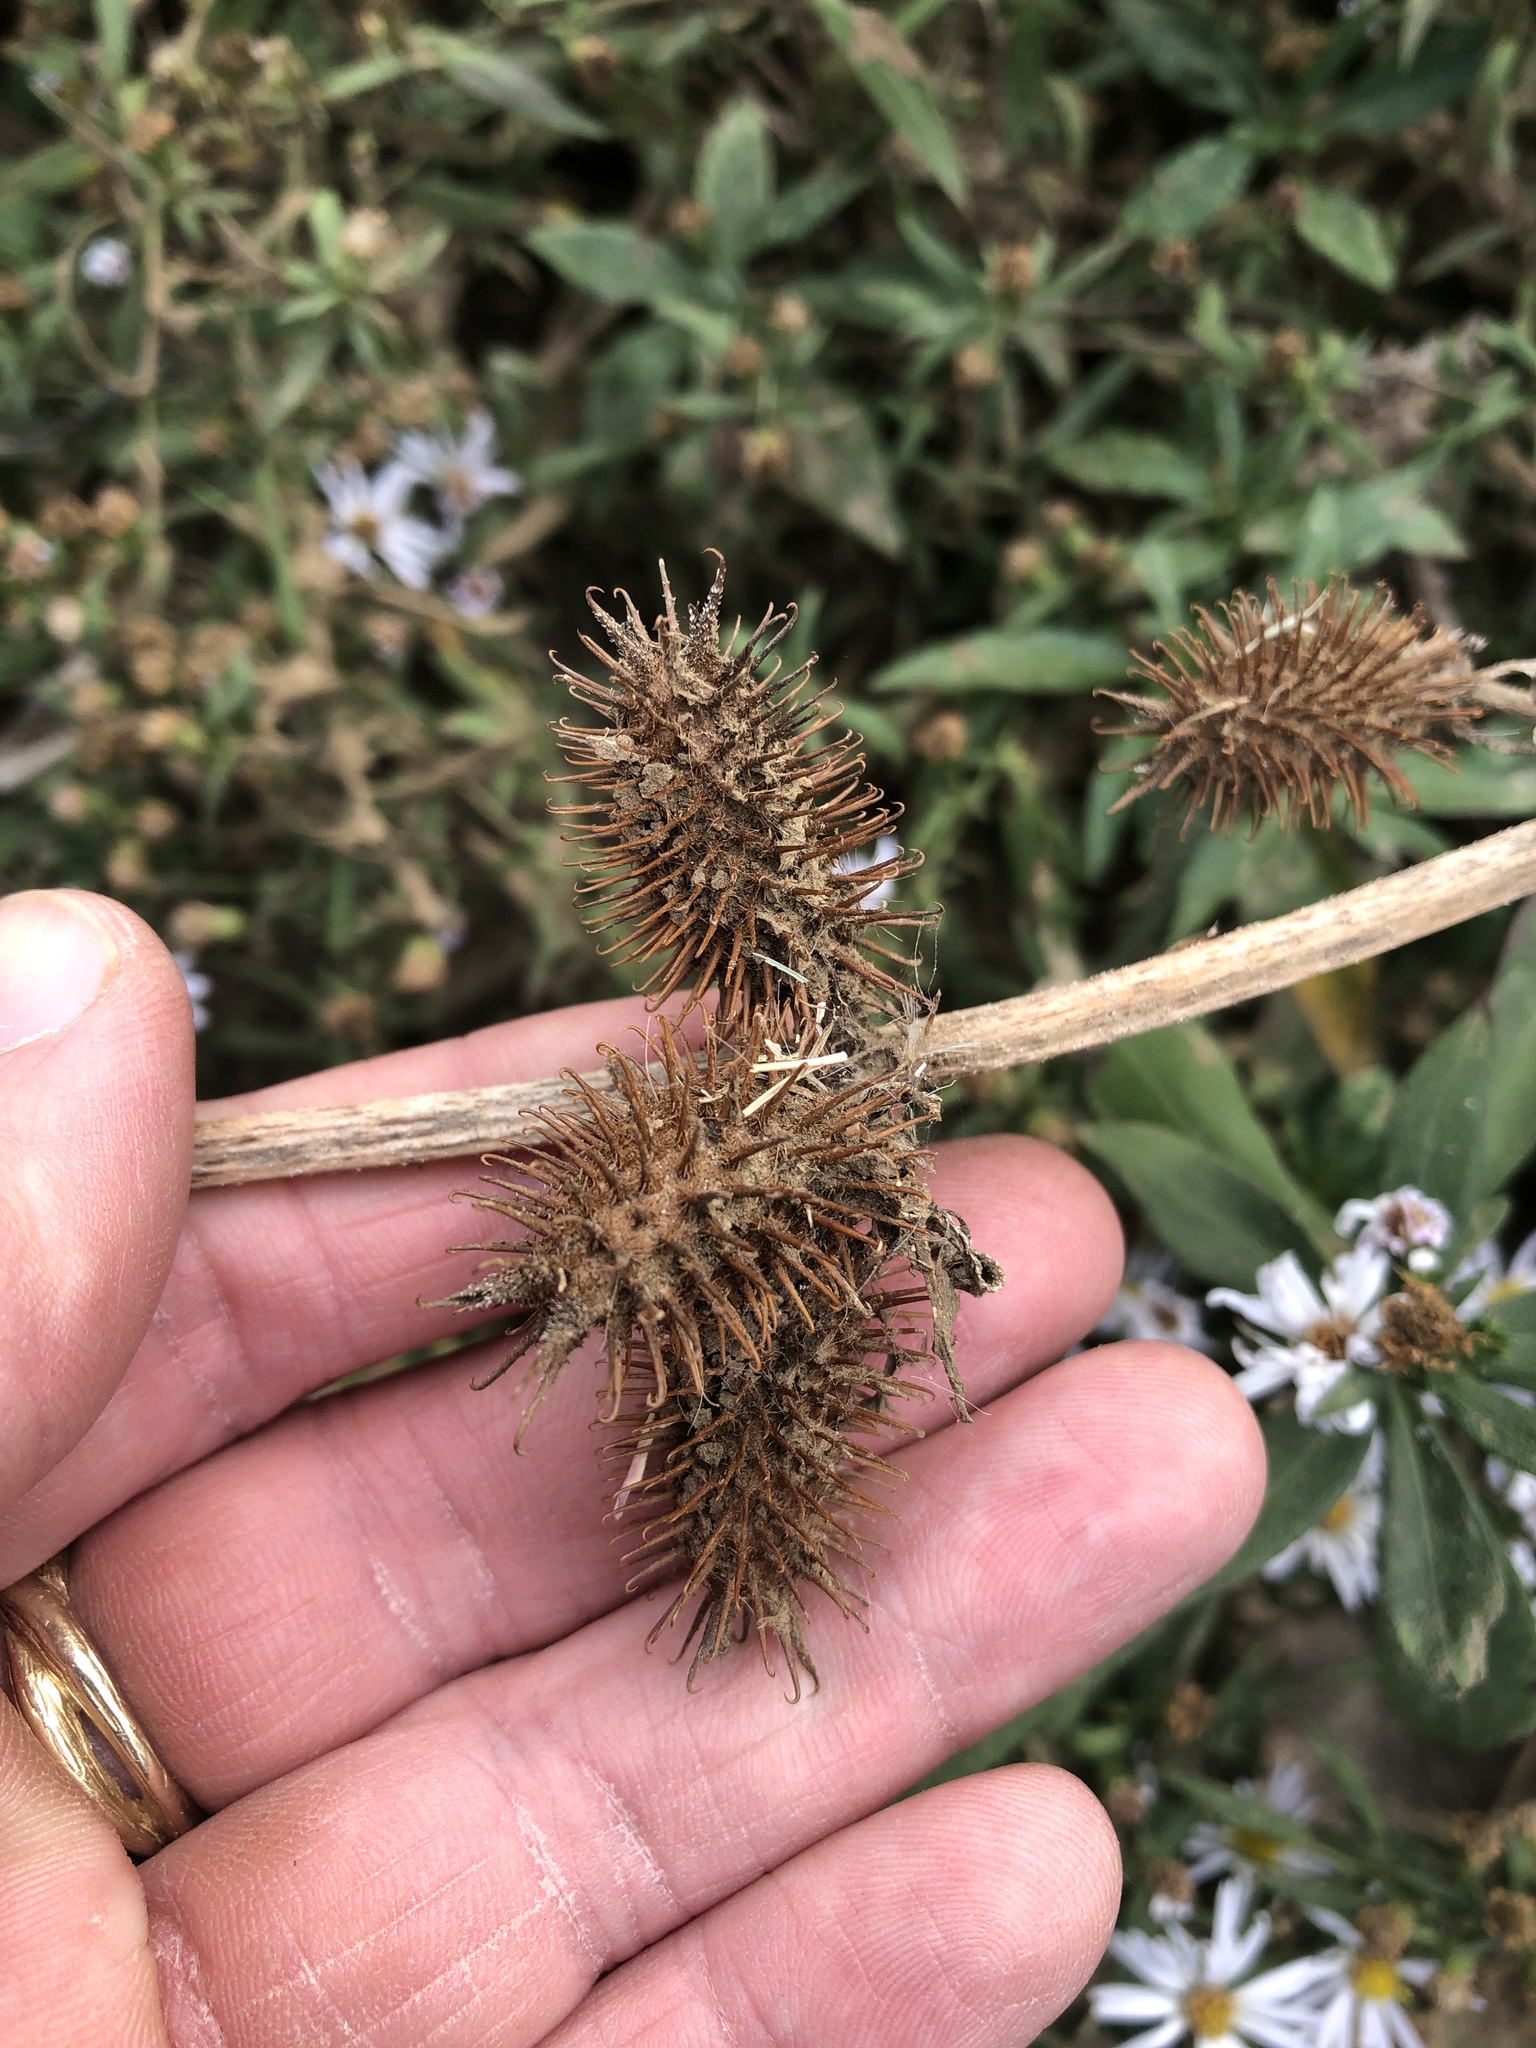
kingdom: Plantae
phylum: Tracheophyta
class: Magnoliopsida
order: Asterales
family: Asteraceae
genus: Xanthium
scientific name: Xanthium strumarium
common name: Rough cocklebur
